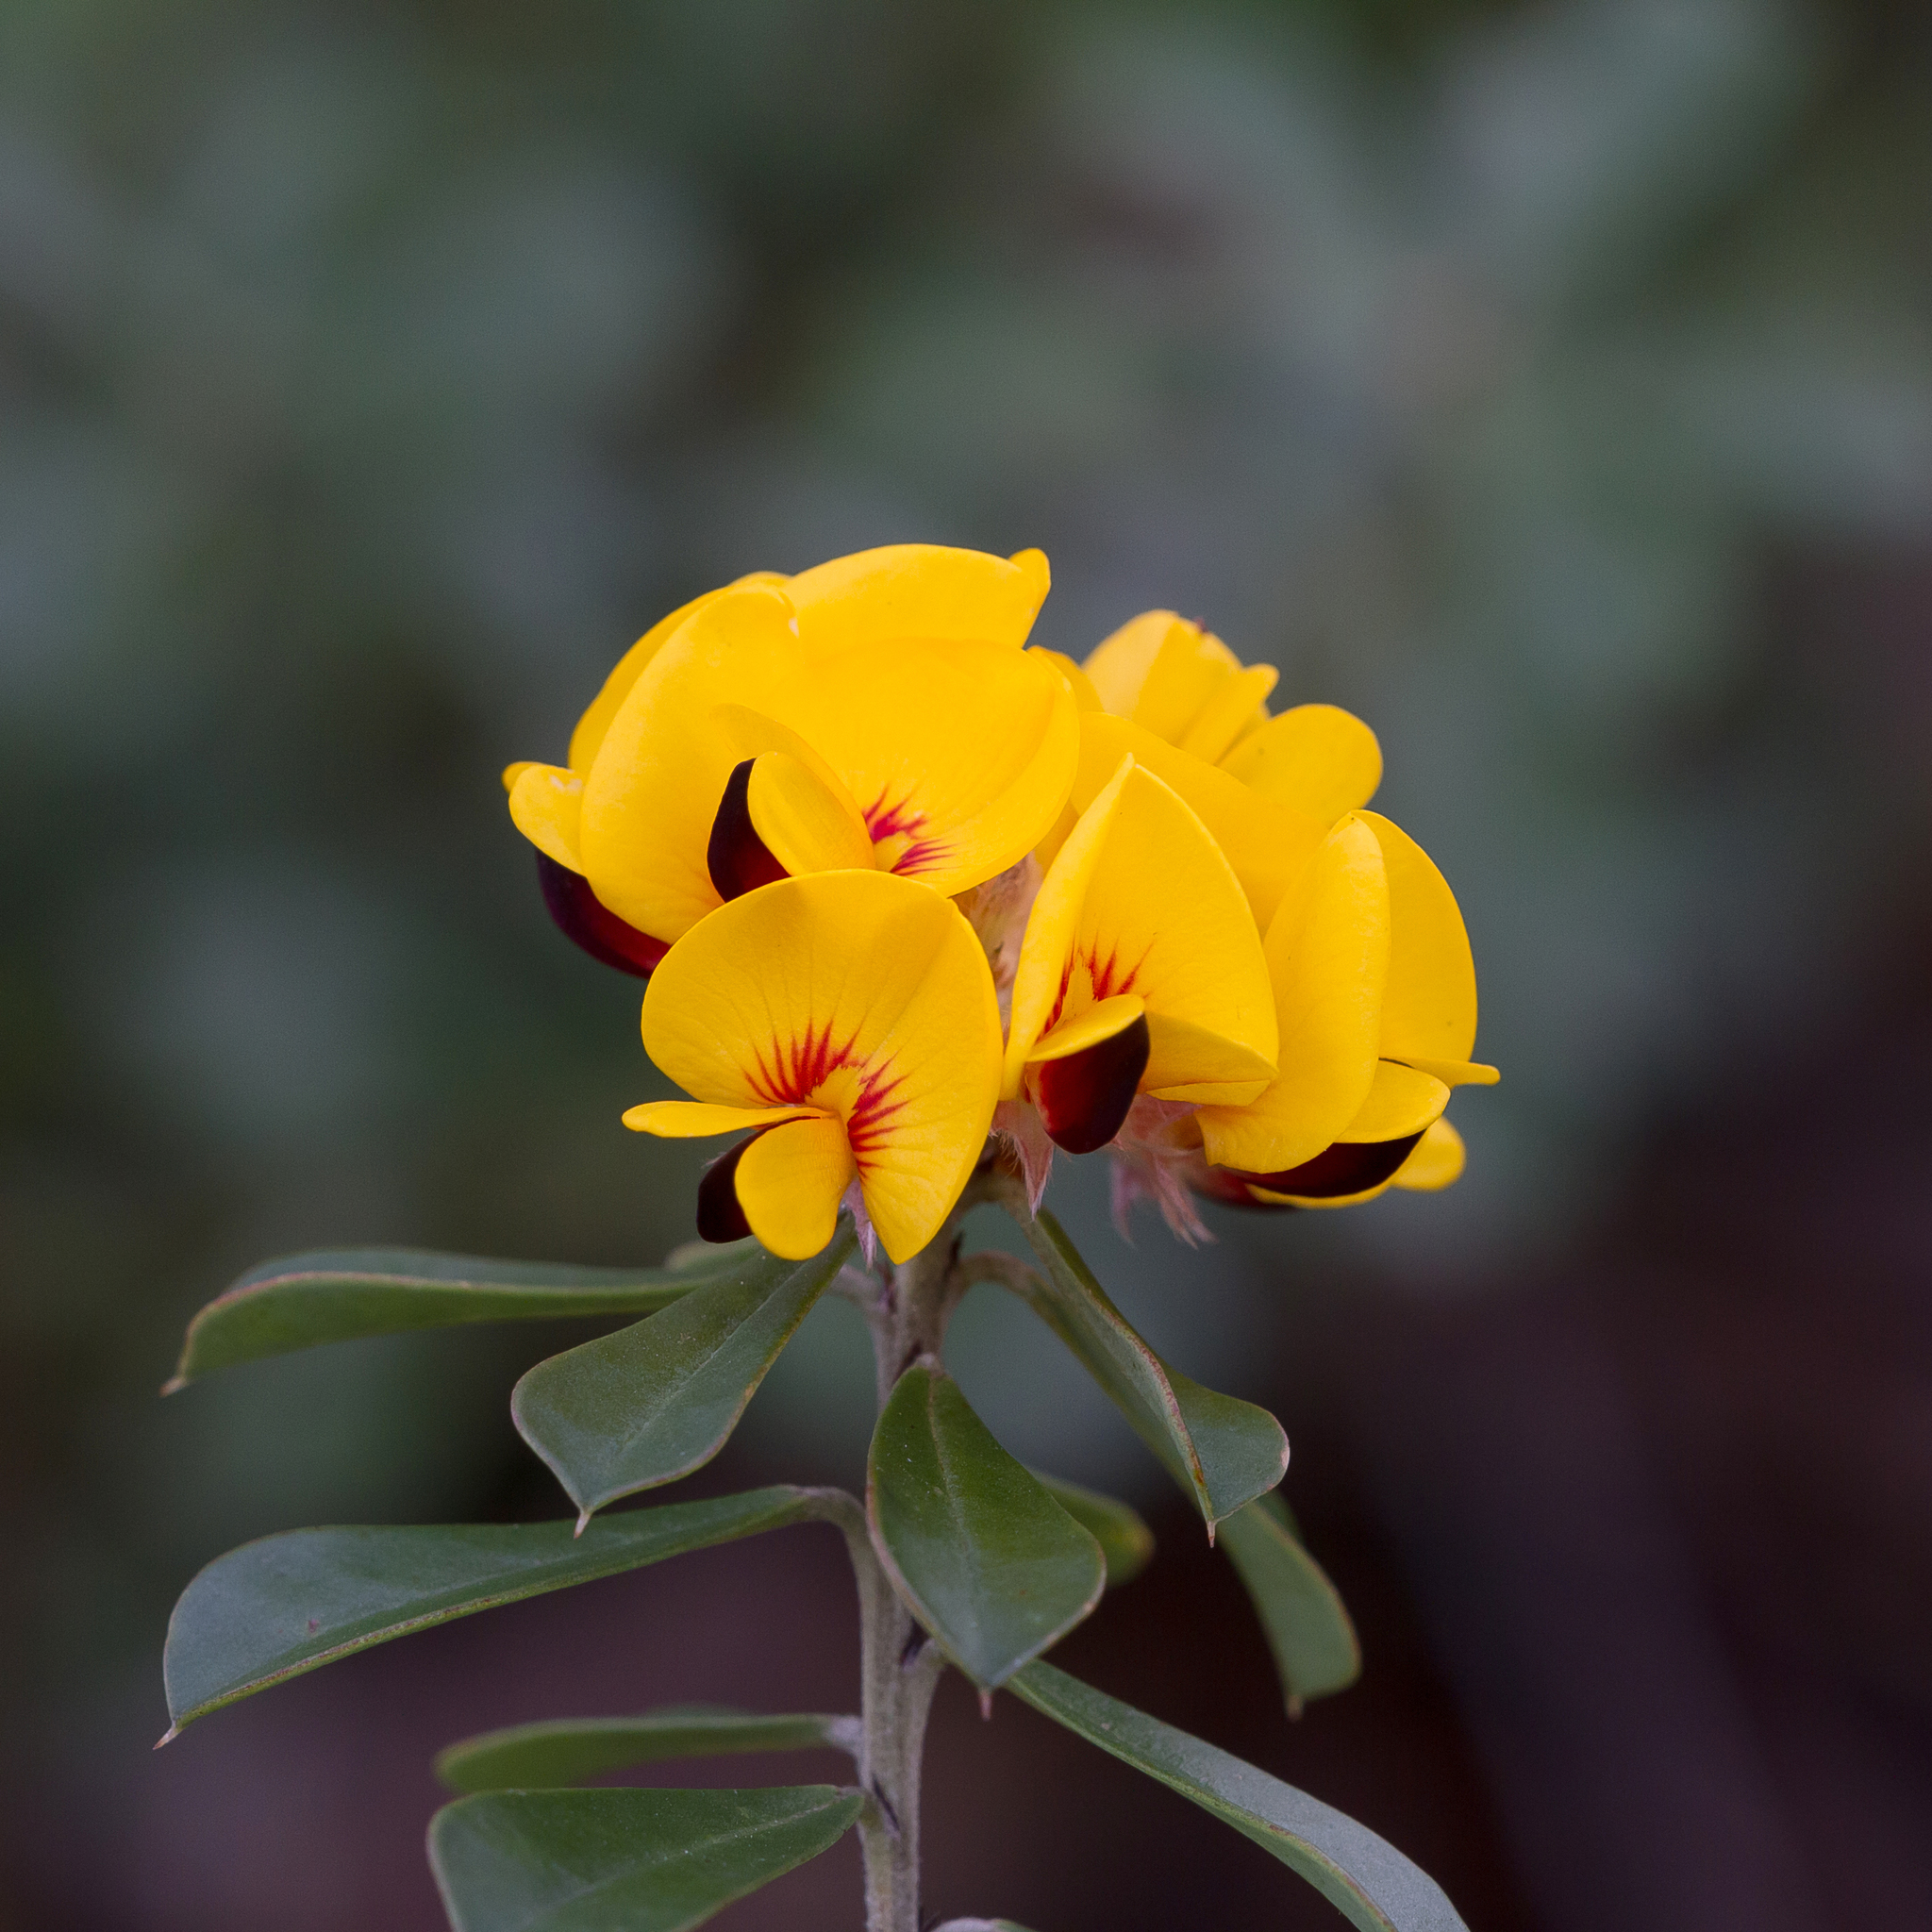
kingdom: Plantae
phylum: Tracheophyta
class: Magnoliopsida
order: Fabales
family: Fabaceae
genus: Pultenaea
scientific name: Pultenaea daphnoides
